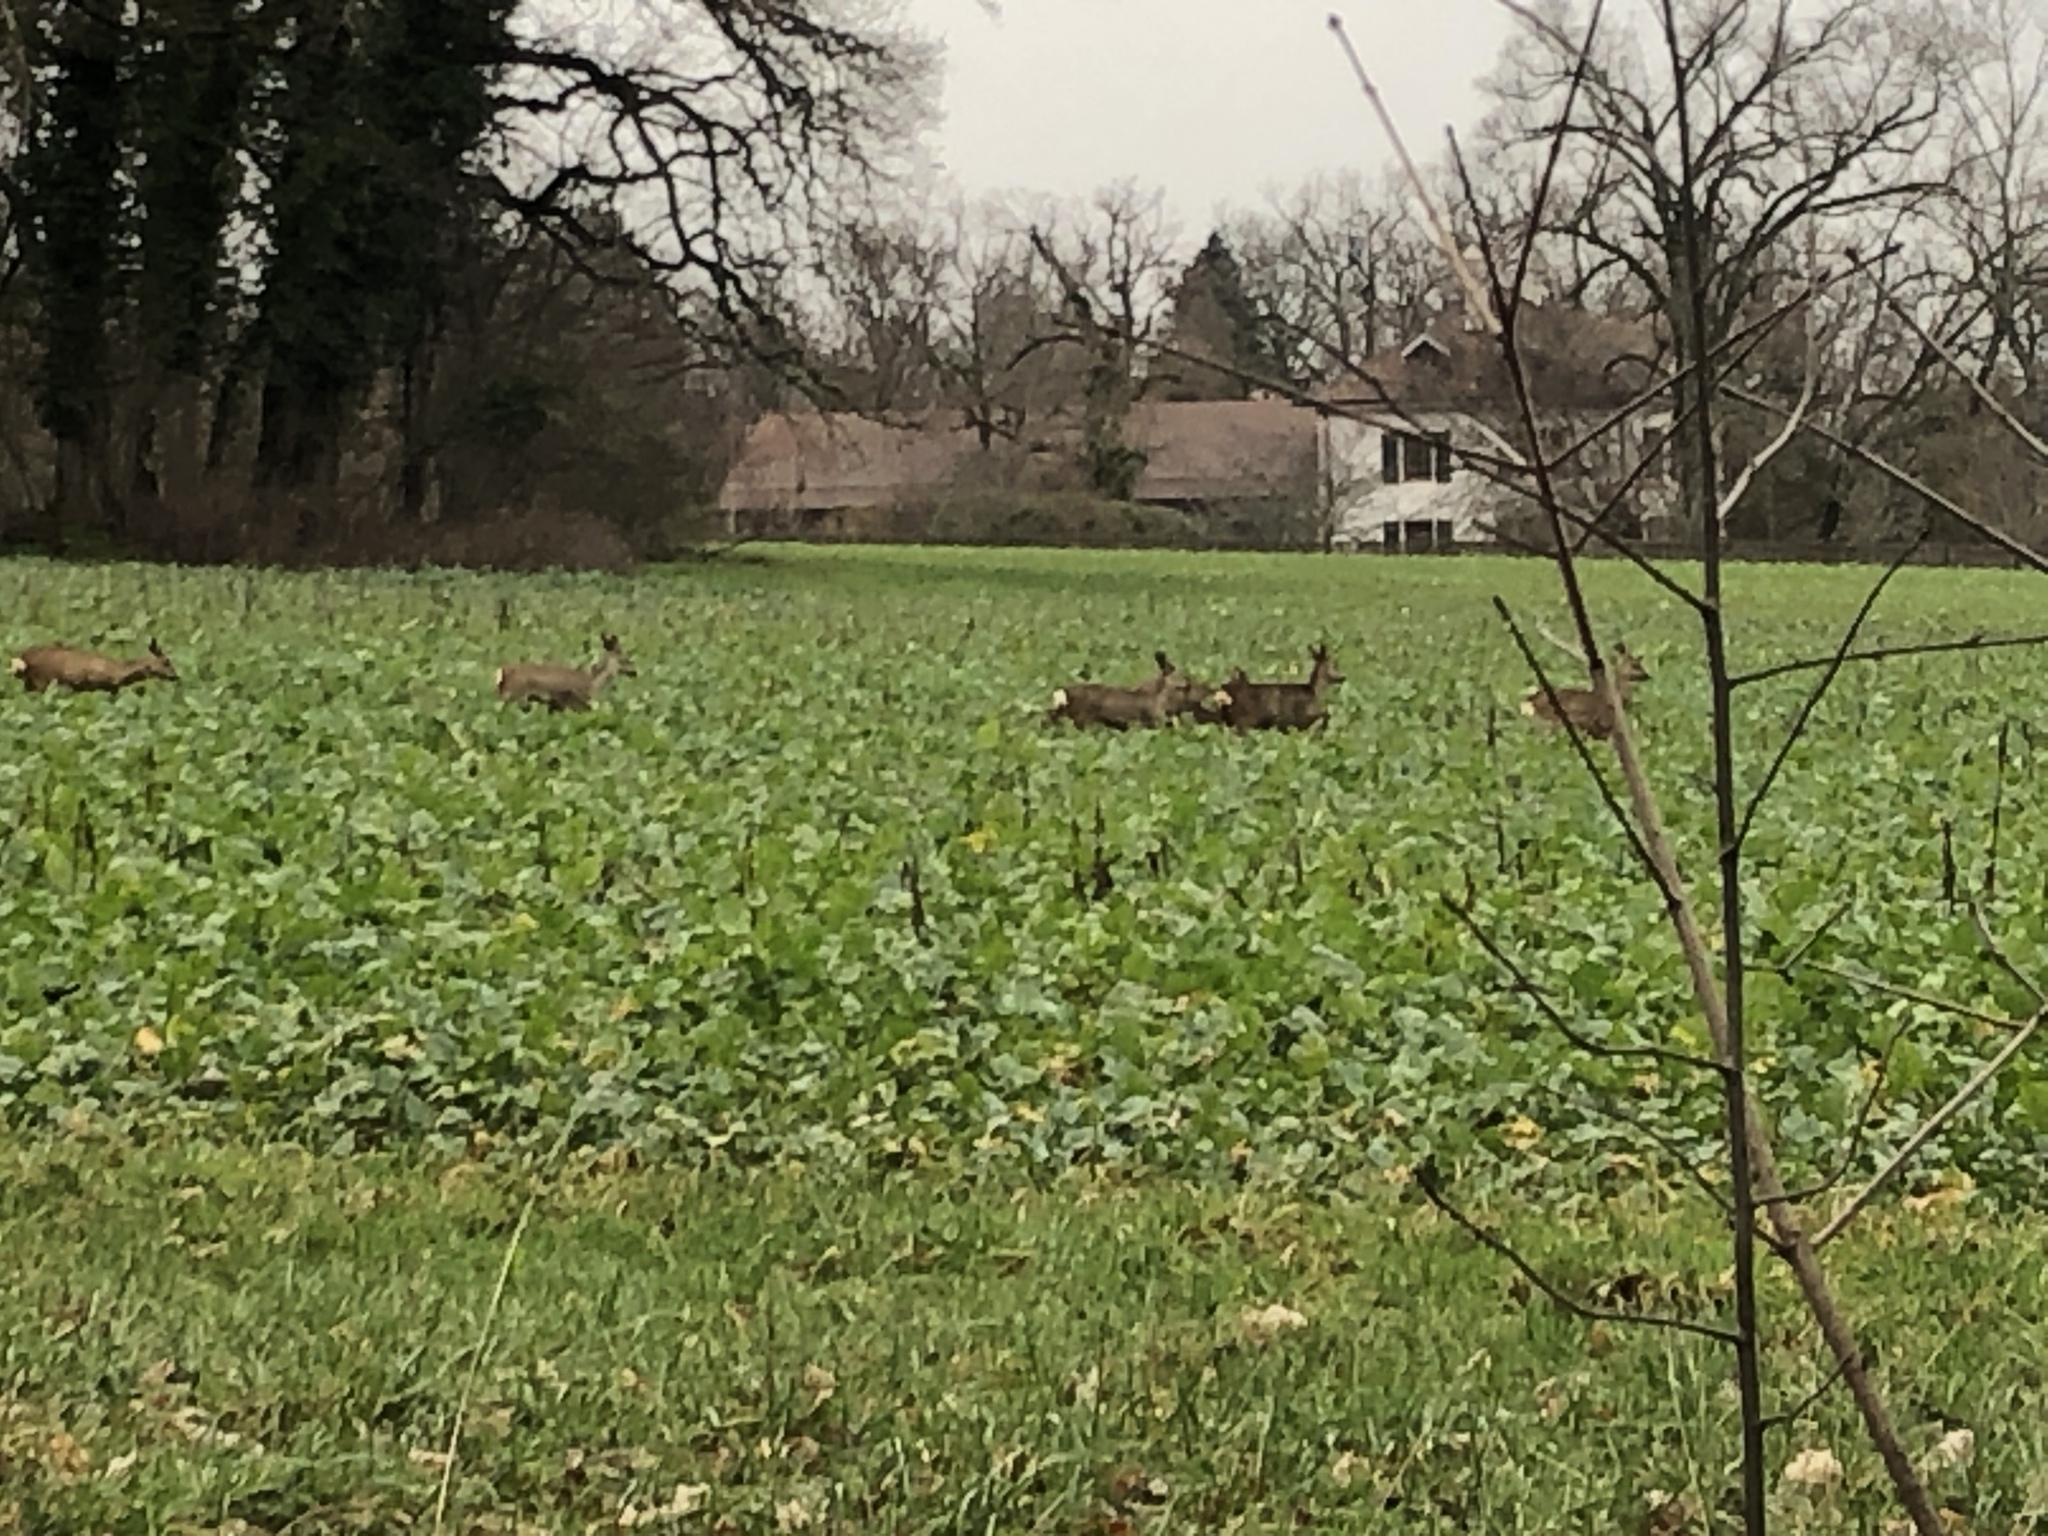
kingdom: Animalia
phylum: Chordata
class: Mammalia
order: Artiodactyla
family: Cervidae
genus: Capreolus
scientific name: Capreolus capreolus
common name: Western roe deer
